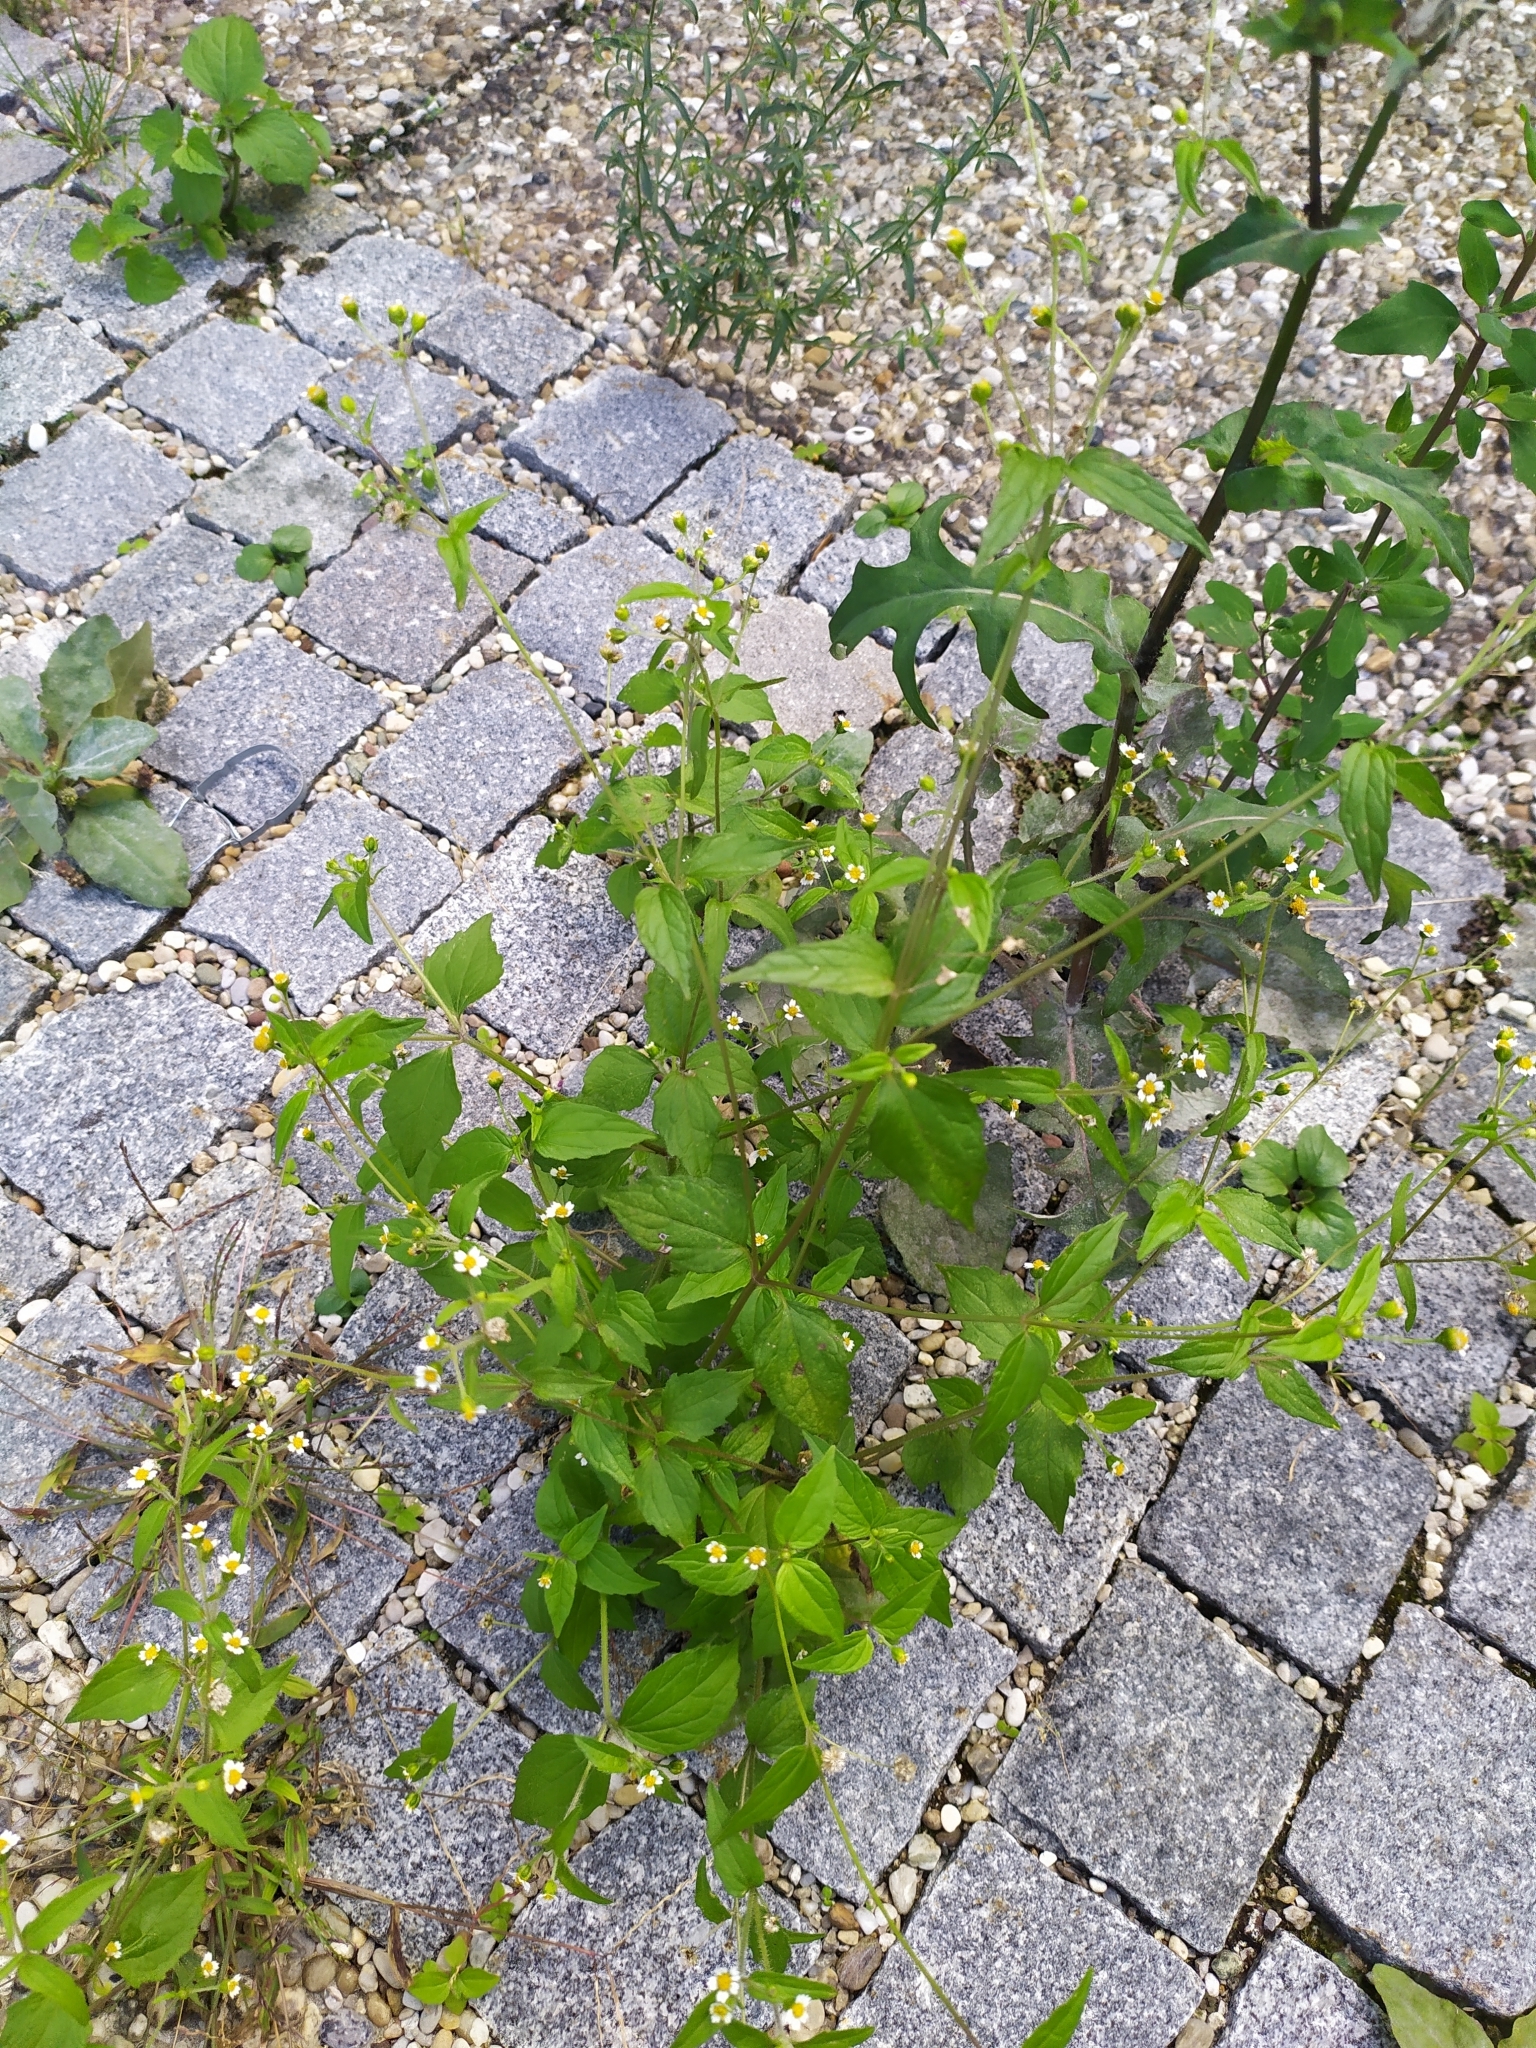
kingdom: Plantae
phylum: Tracheophyta
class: Magnoliopsida
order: Asterales
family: Asteraceae
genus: Galinsoga
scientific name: Galinsoga quadriradiata
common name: Shaggy soldier
